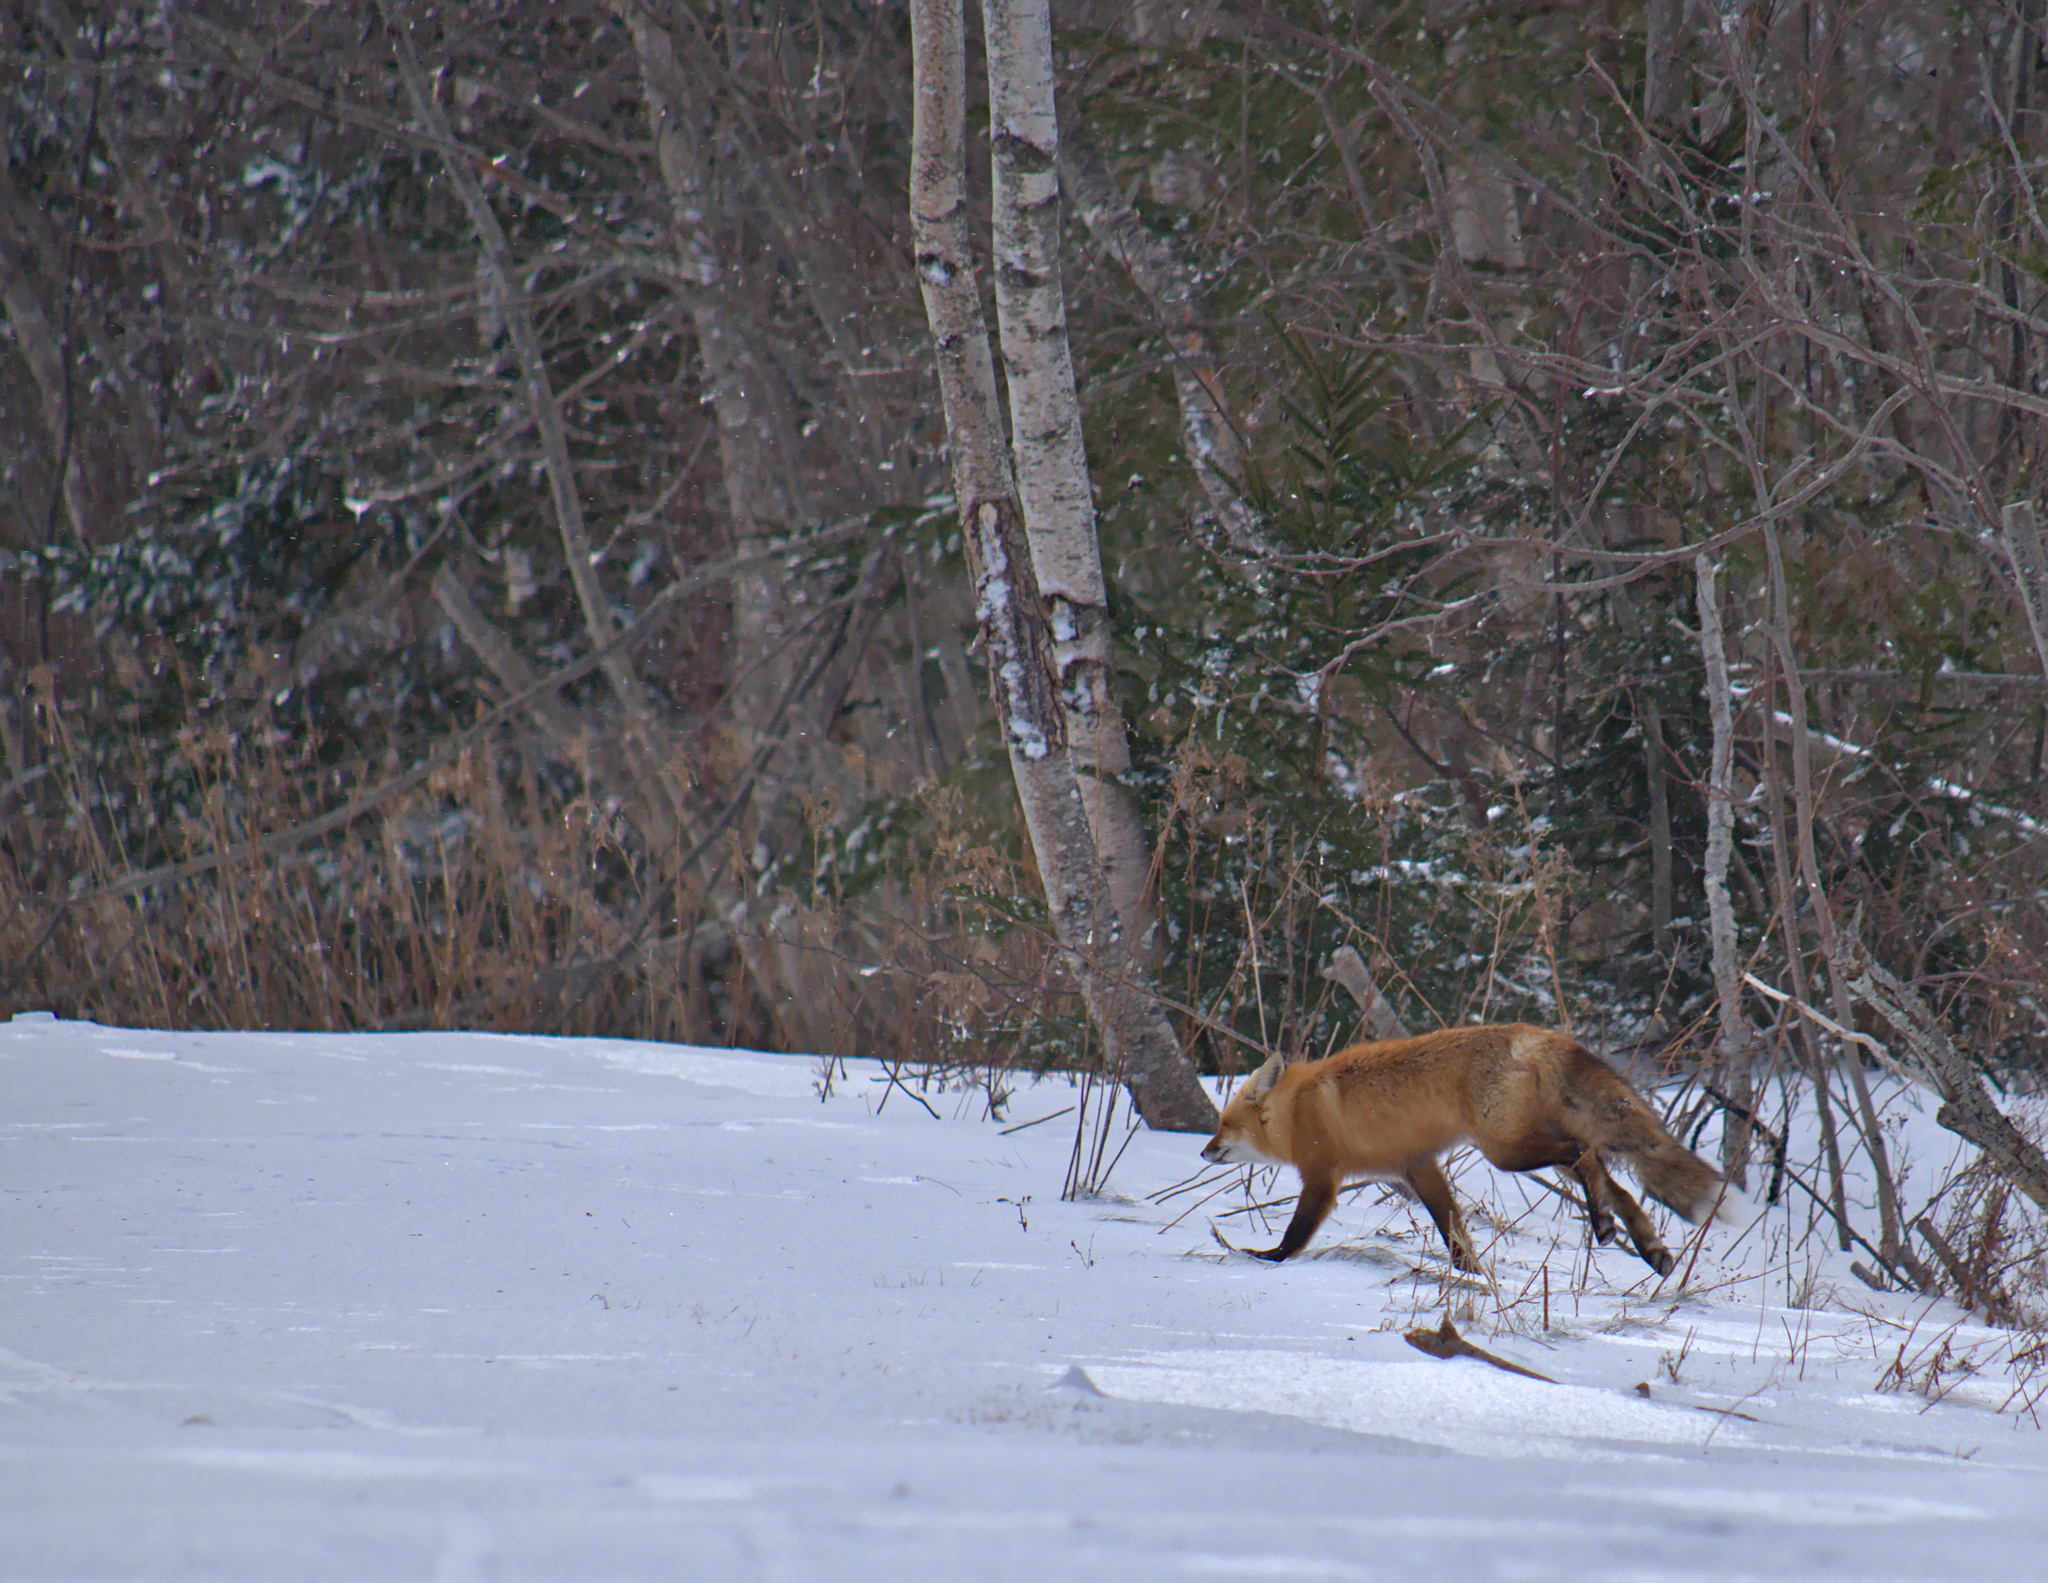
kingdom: Animalia
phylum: Chordata
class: Mammalia
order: Carnivora
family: Canidae
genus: Vulpes
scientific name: Vulpes vulpes
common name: Red fox
